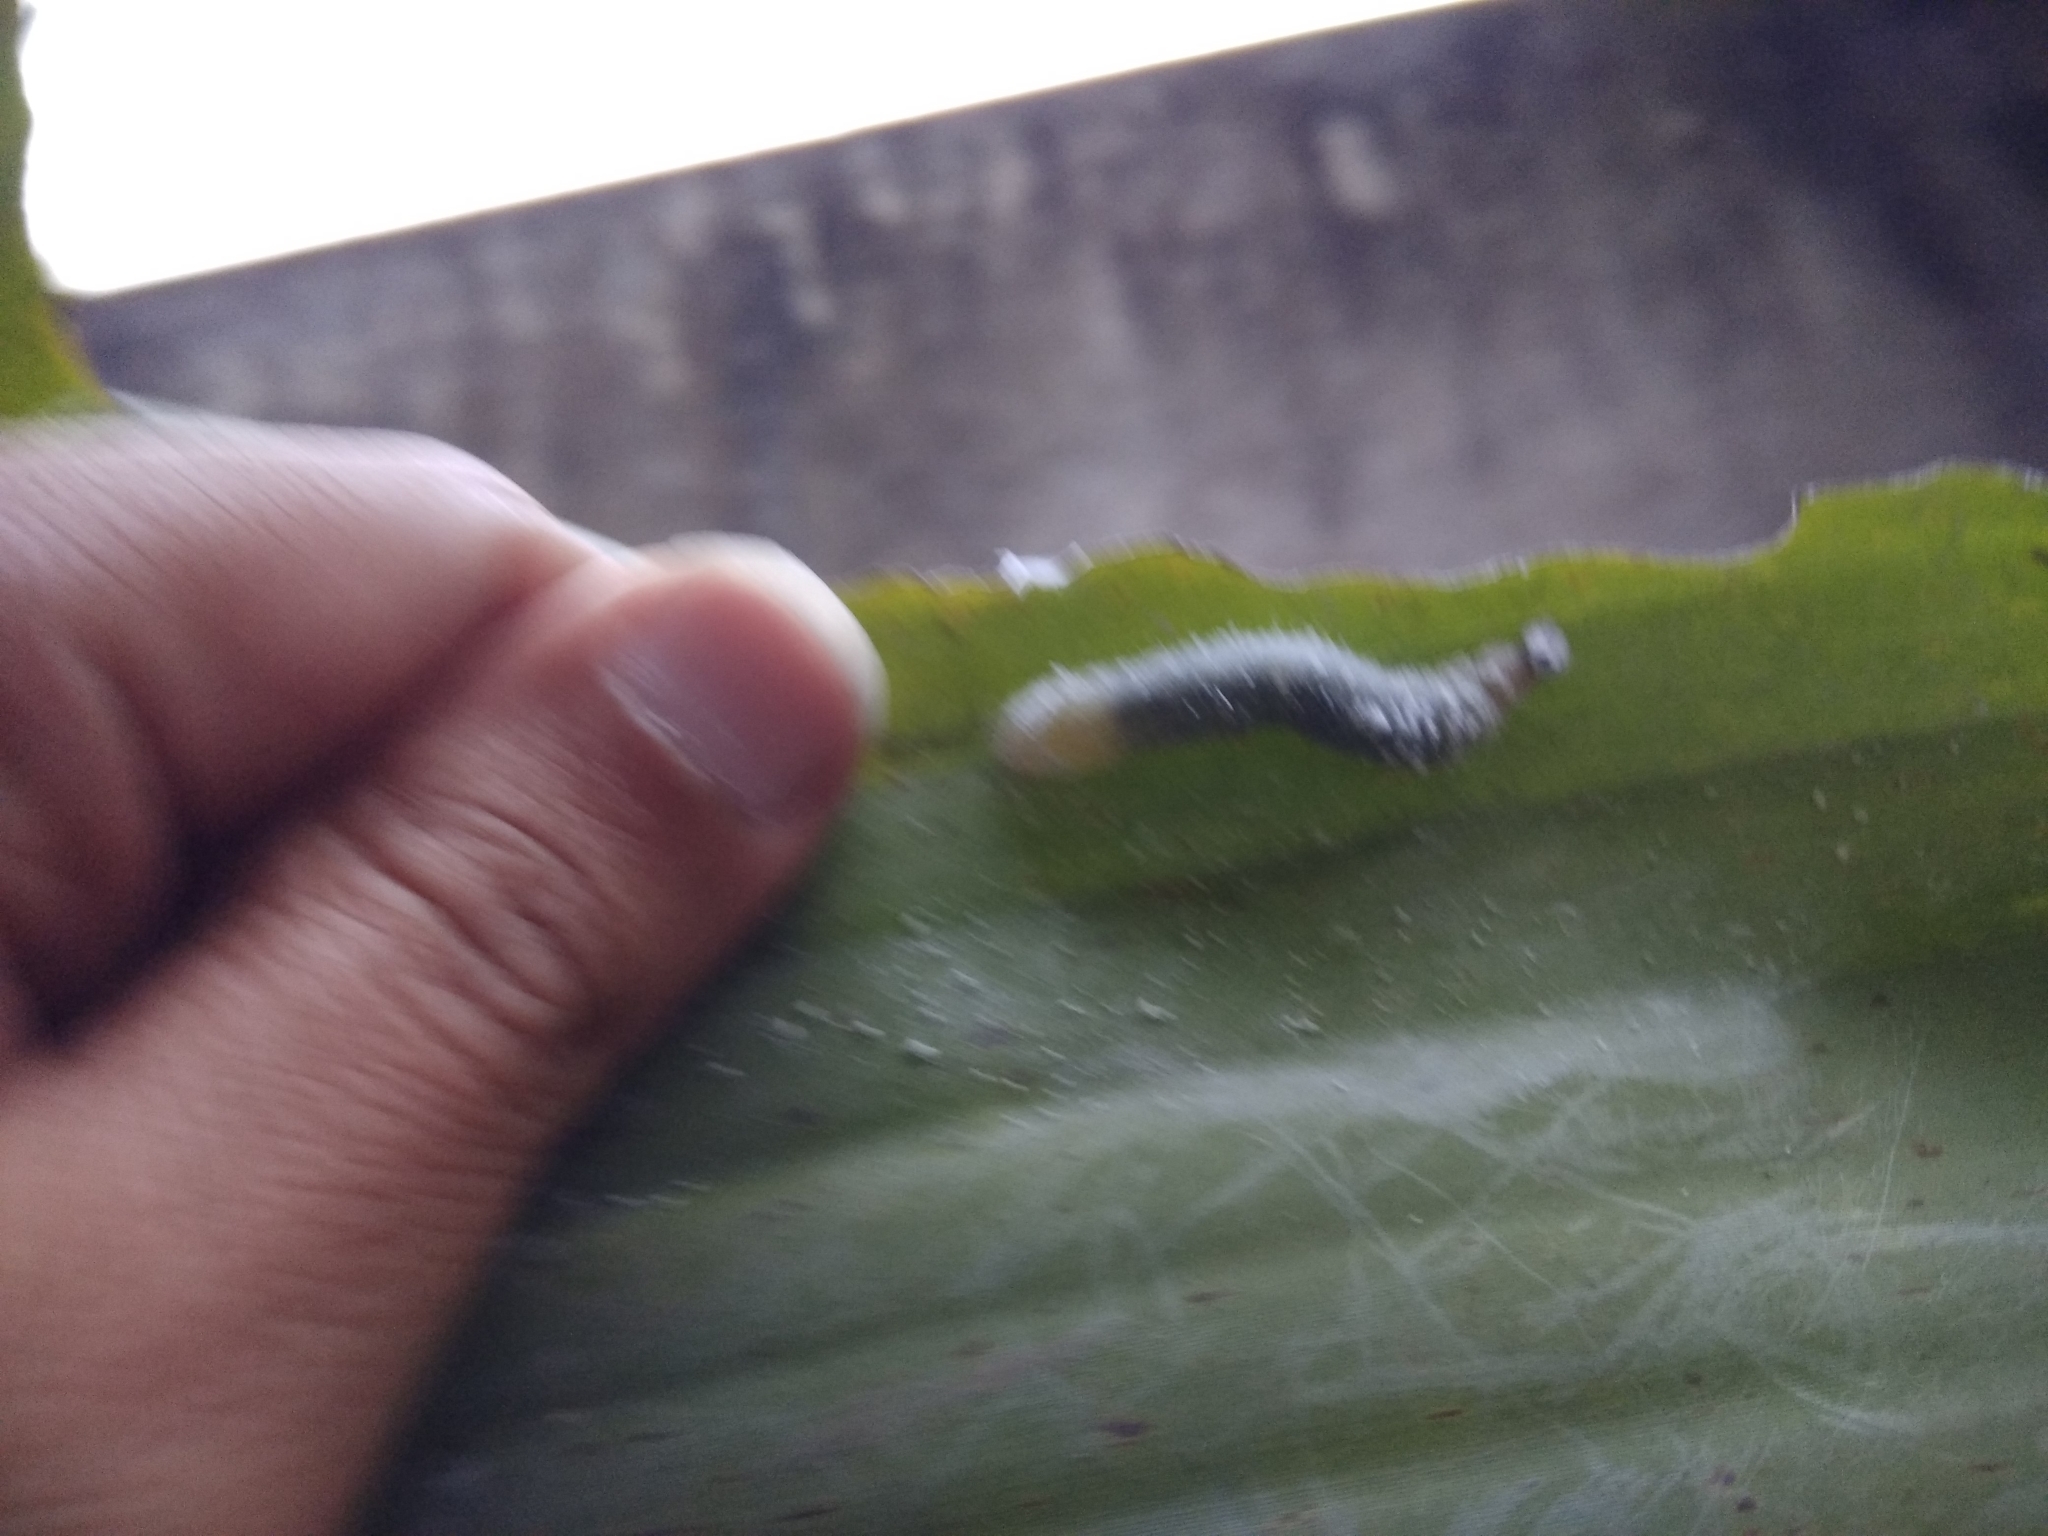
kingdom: Animalia
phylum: Arthropoda
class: Insecta
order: Lepidoptera
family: Hesperiidae
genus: Erionota
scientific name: Erionota torus
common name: Rounded palm-redeye
